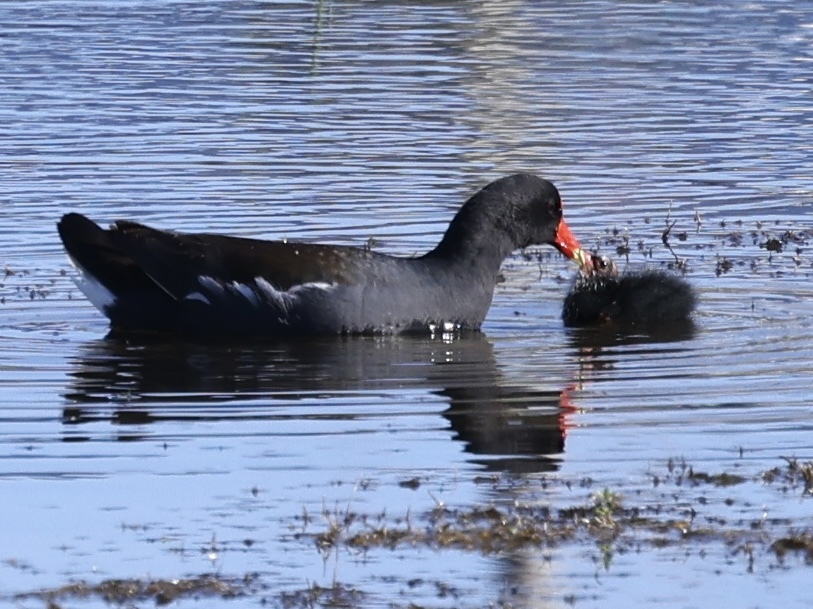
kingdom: Animalia
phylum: Chordata
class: Aves
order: Gruiformes
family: Rallidae
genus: Gallinula
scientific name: Gallinula chloropus
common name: Common moorhen
